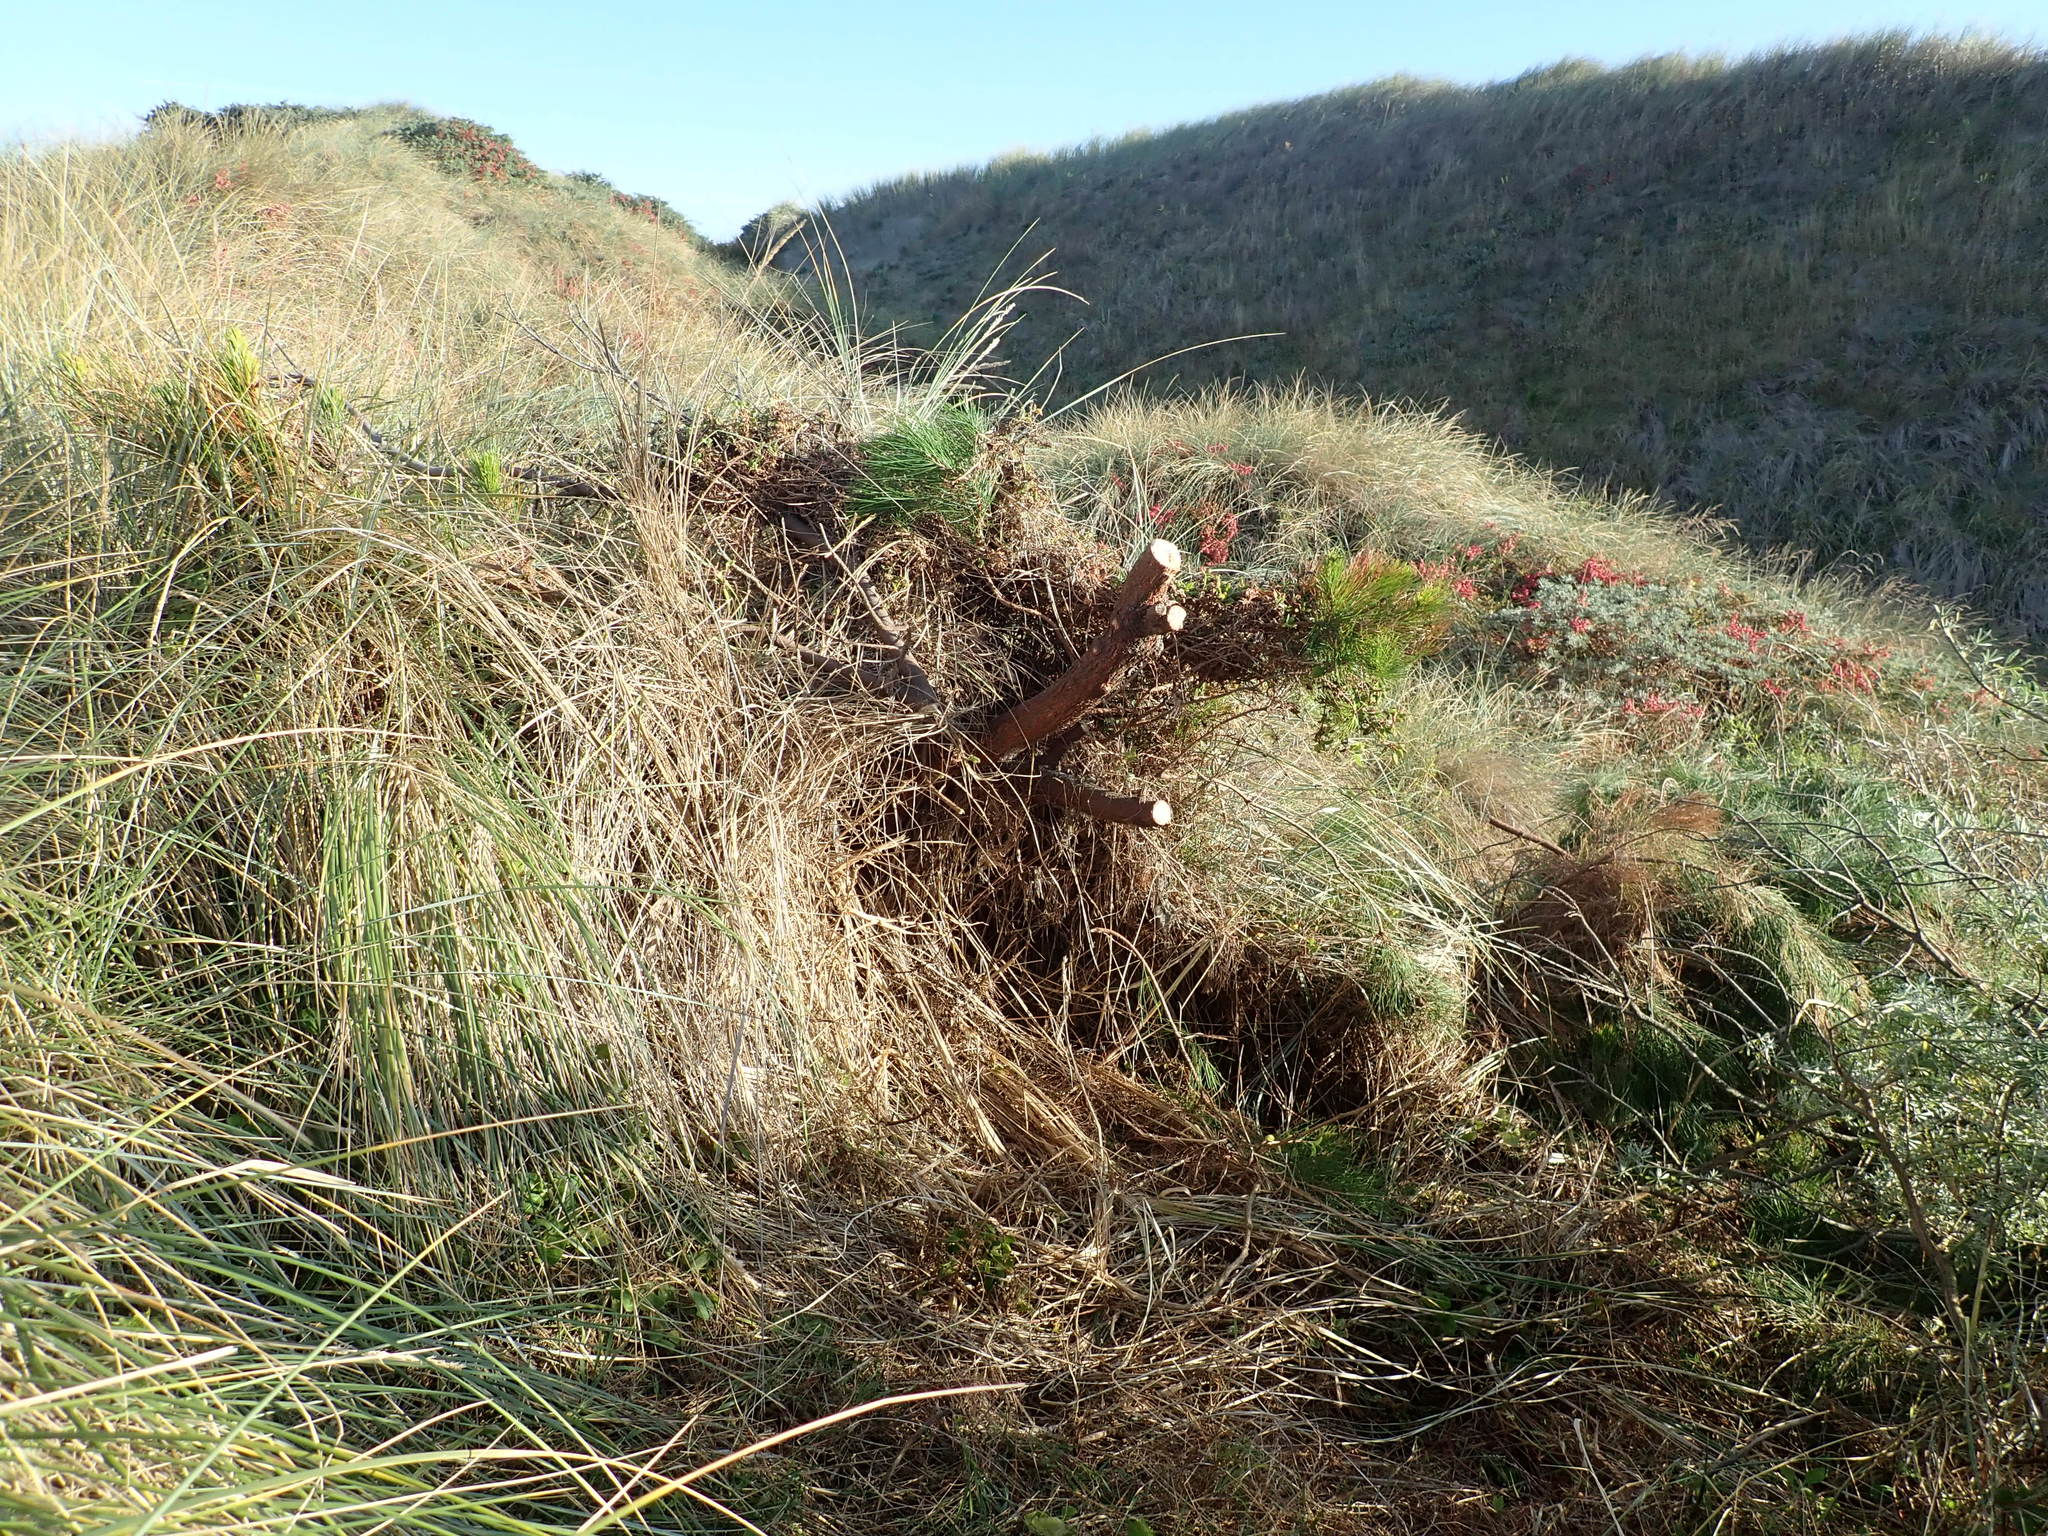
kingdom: Plantae
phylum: Tracheophyta
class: Pinopsida
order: Pinales
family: Pinaceae
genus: Pinus
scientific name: Pinus radiata
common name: Monterey pine
